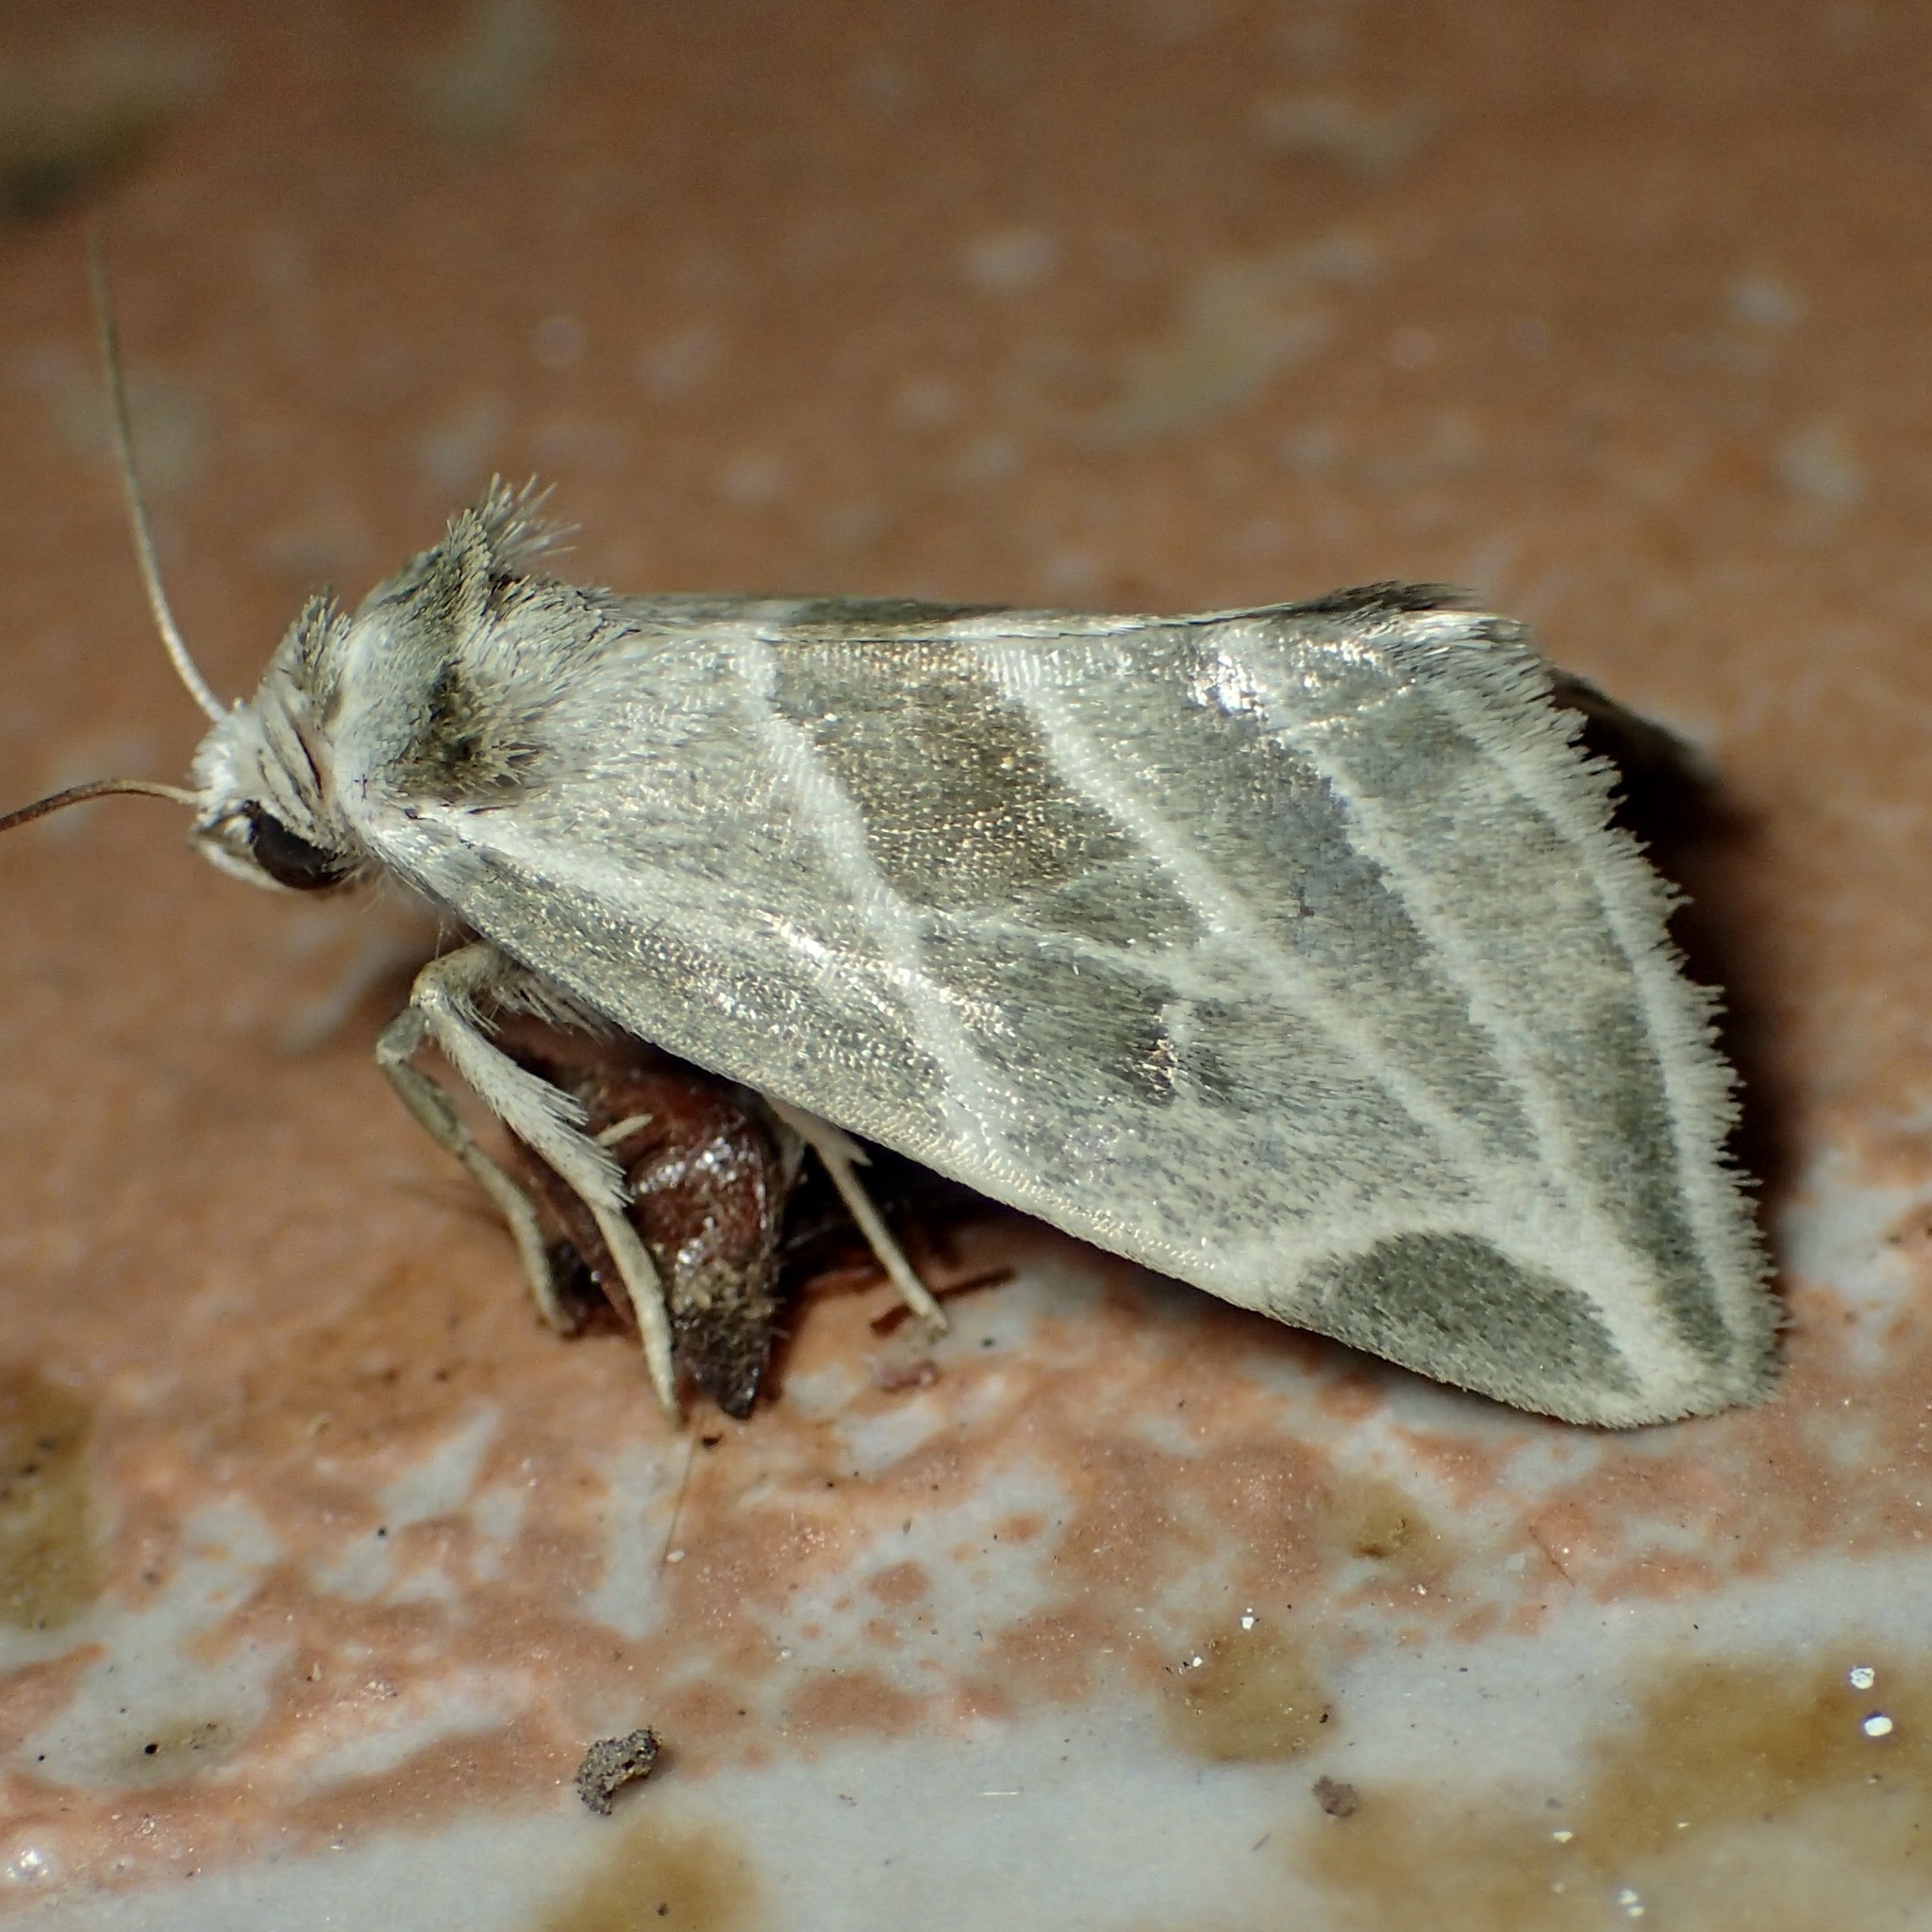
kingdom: Animalia
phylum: Arthropoda
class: Insecta
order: Lepidoptera
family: Noctuidae
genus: Plagiomimicus
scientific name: Plagiomimicus tepperi
